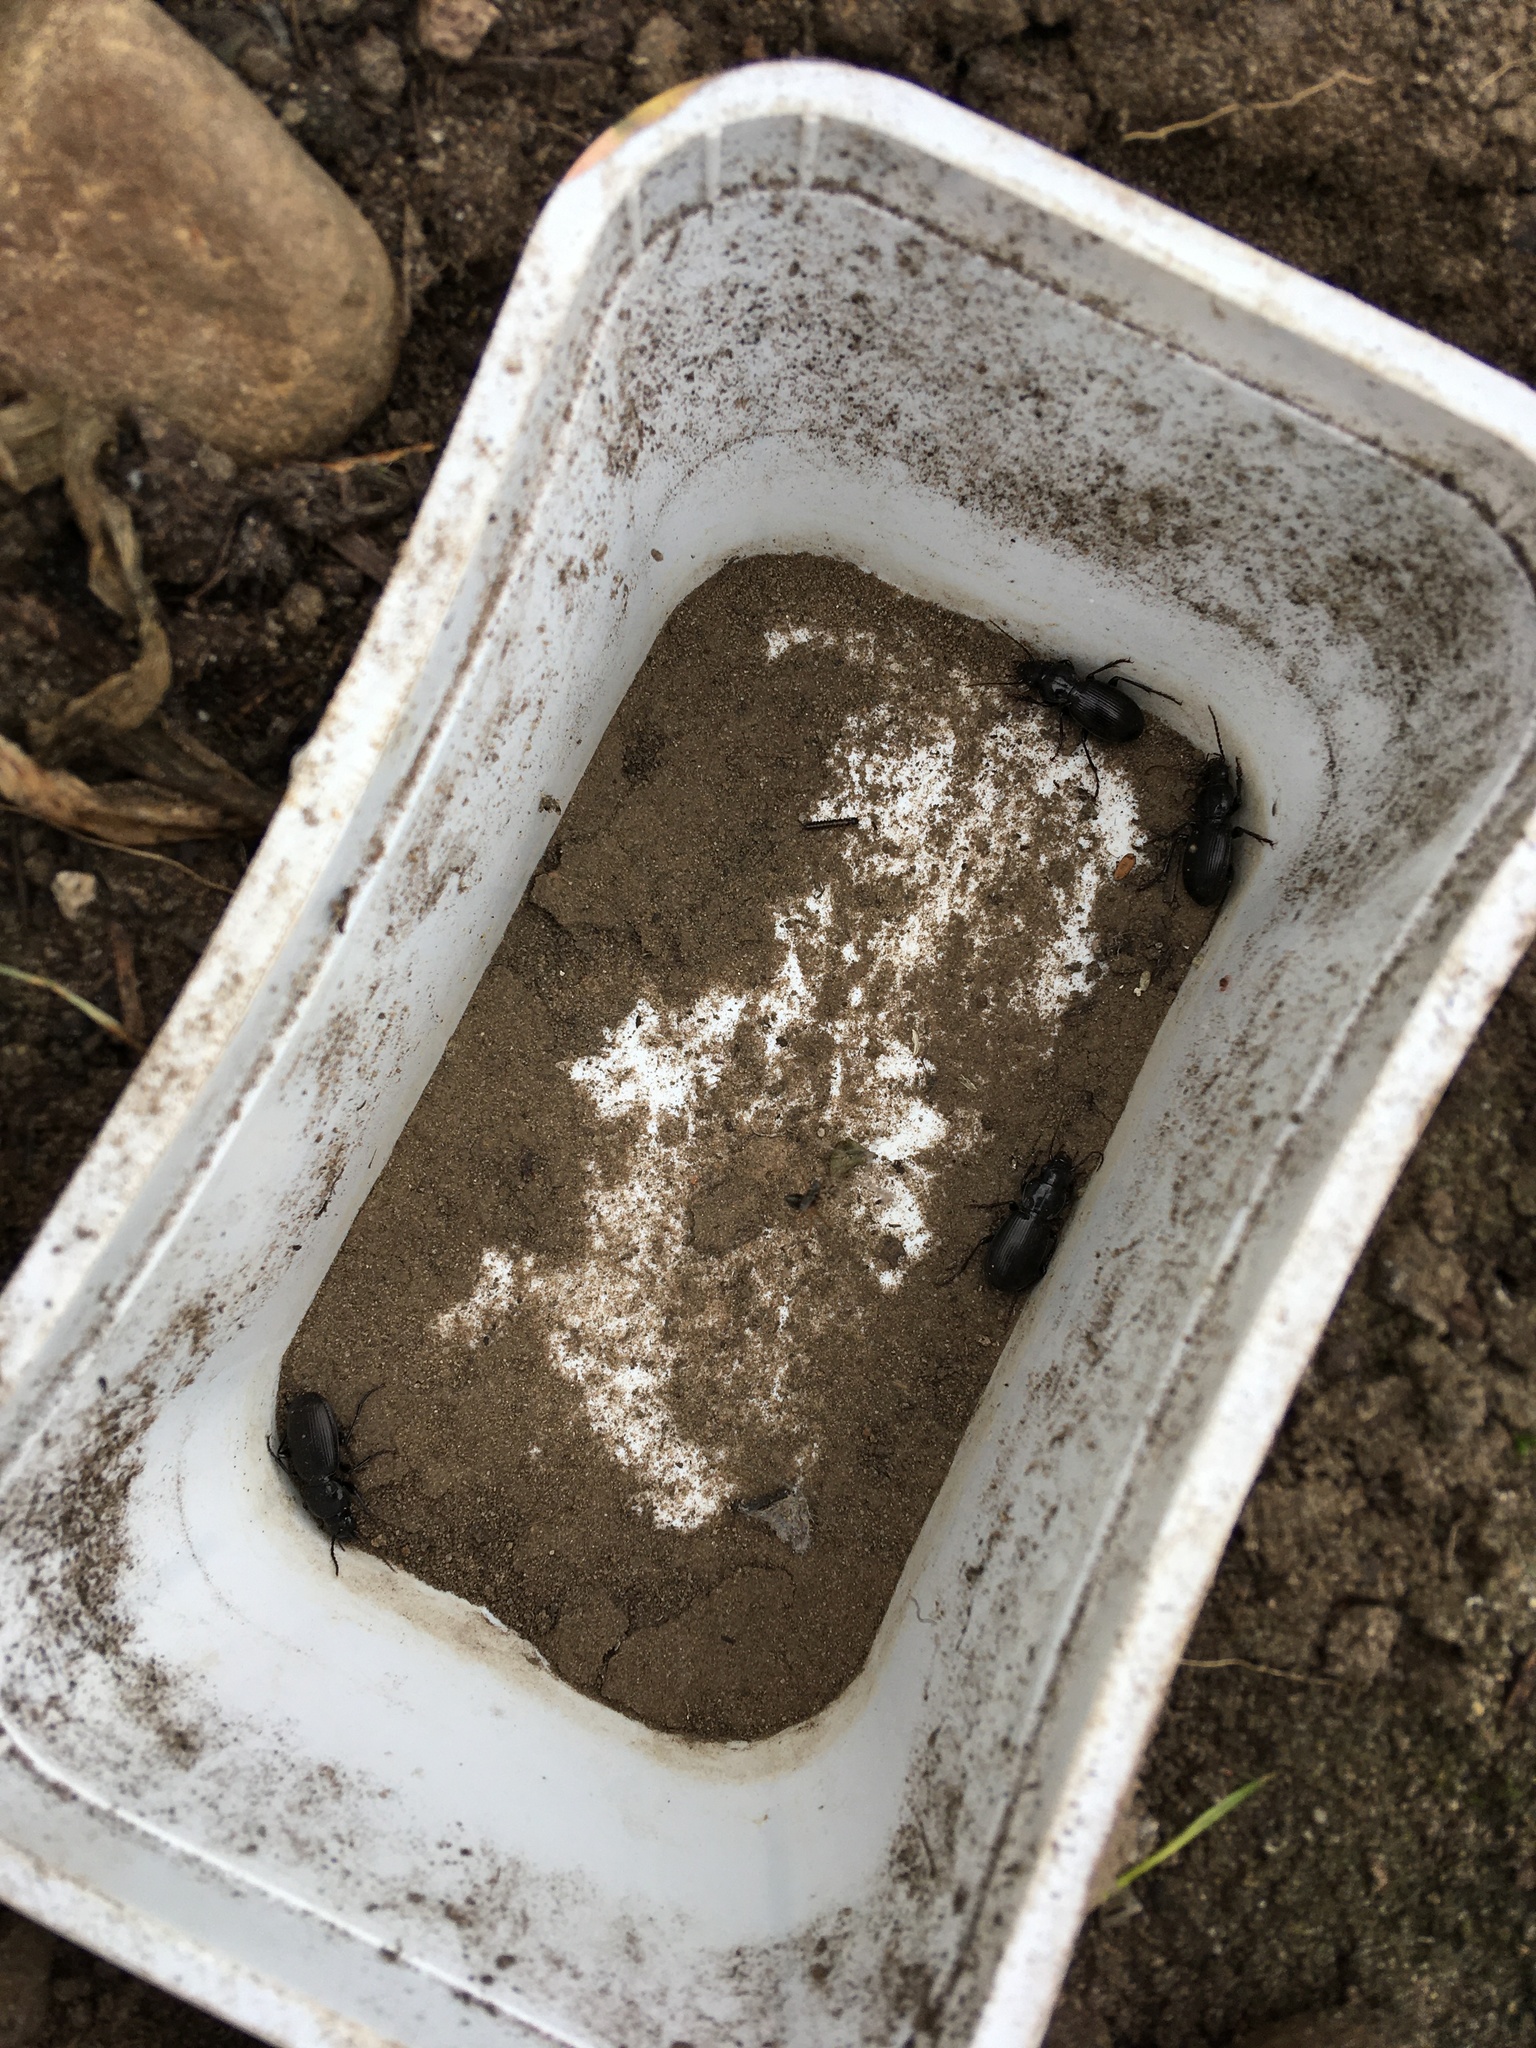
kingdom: Animalia
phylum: Arthropoda
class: Insecta
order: Coleoptera
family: Carabidae
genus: Pterostichus
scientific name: Pterostichus madidus
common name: Black clock
